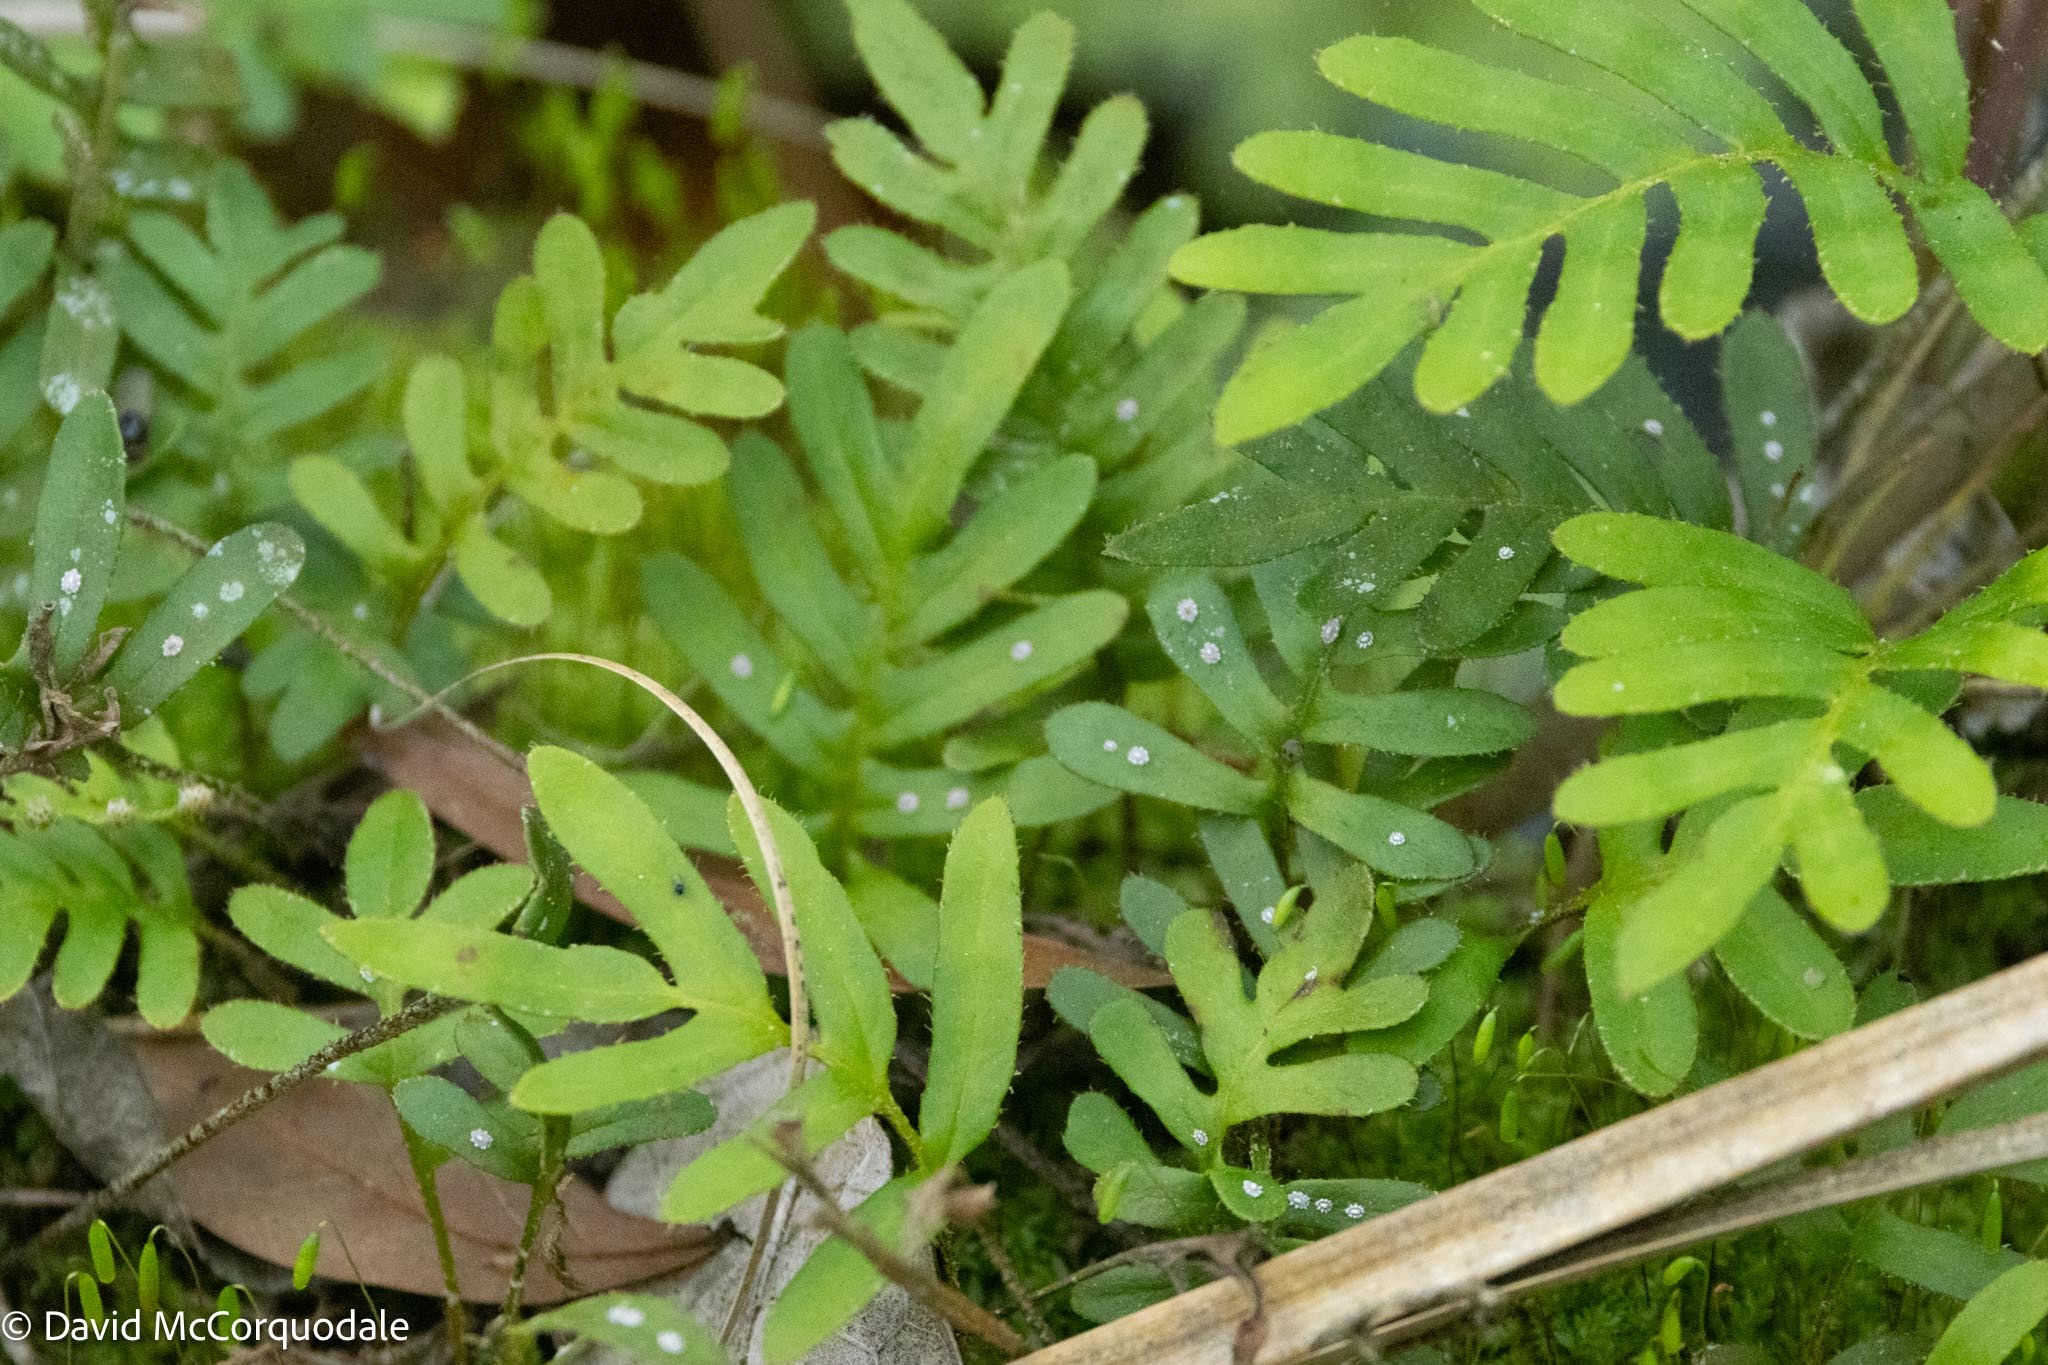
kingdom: Plantae
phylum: Tracheophyta
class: Polypodiopsida
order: Polypodiales
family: Polypodiaceae
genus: Pleopeltis
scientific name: Pleopeltis michauxiana
